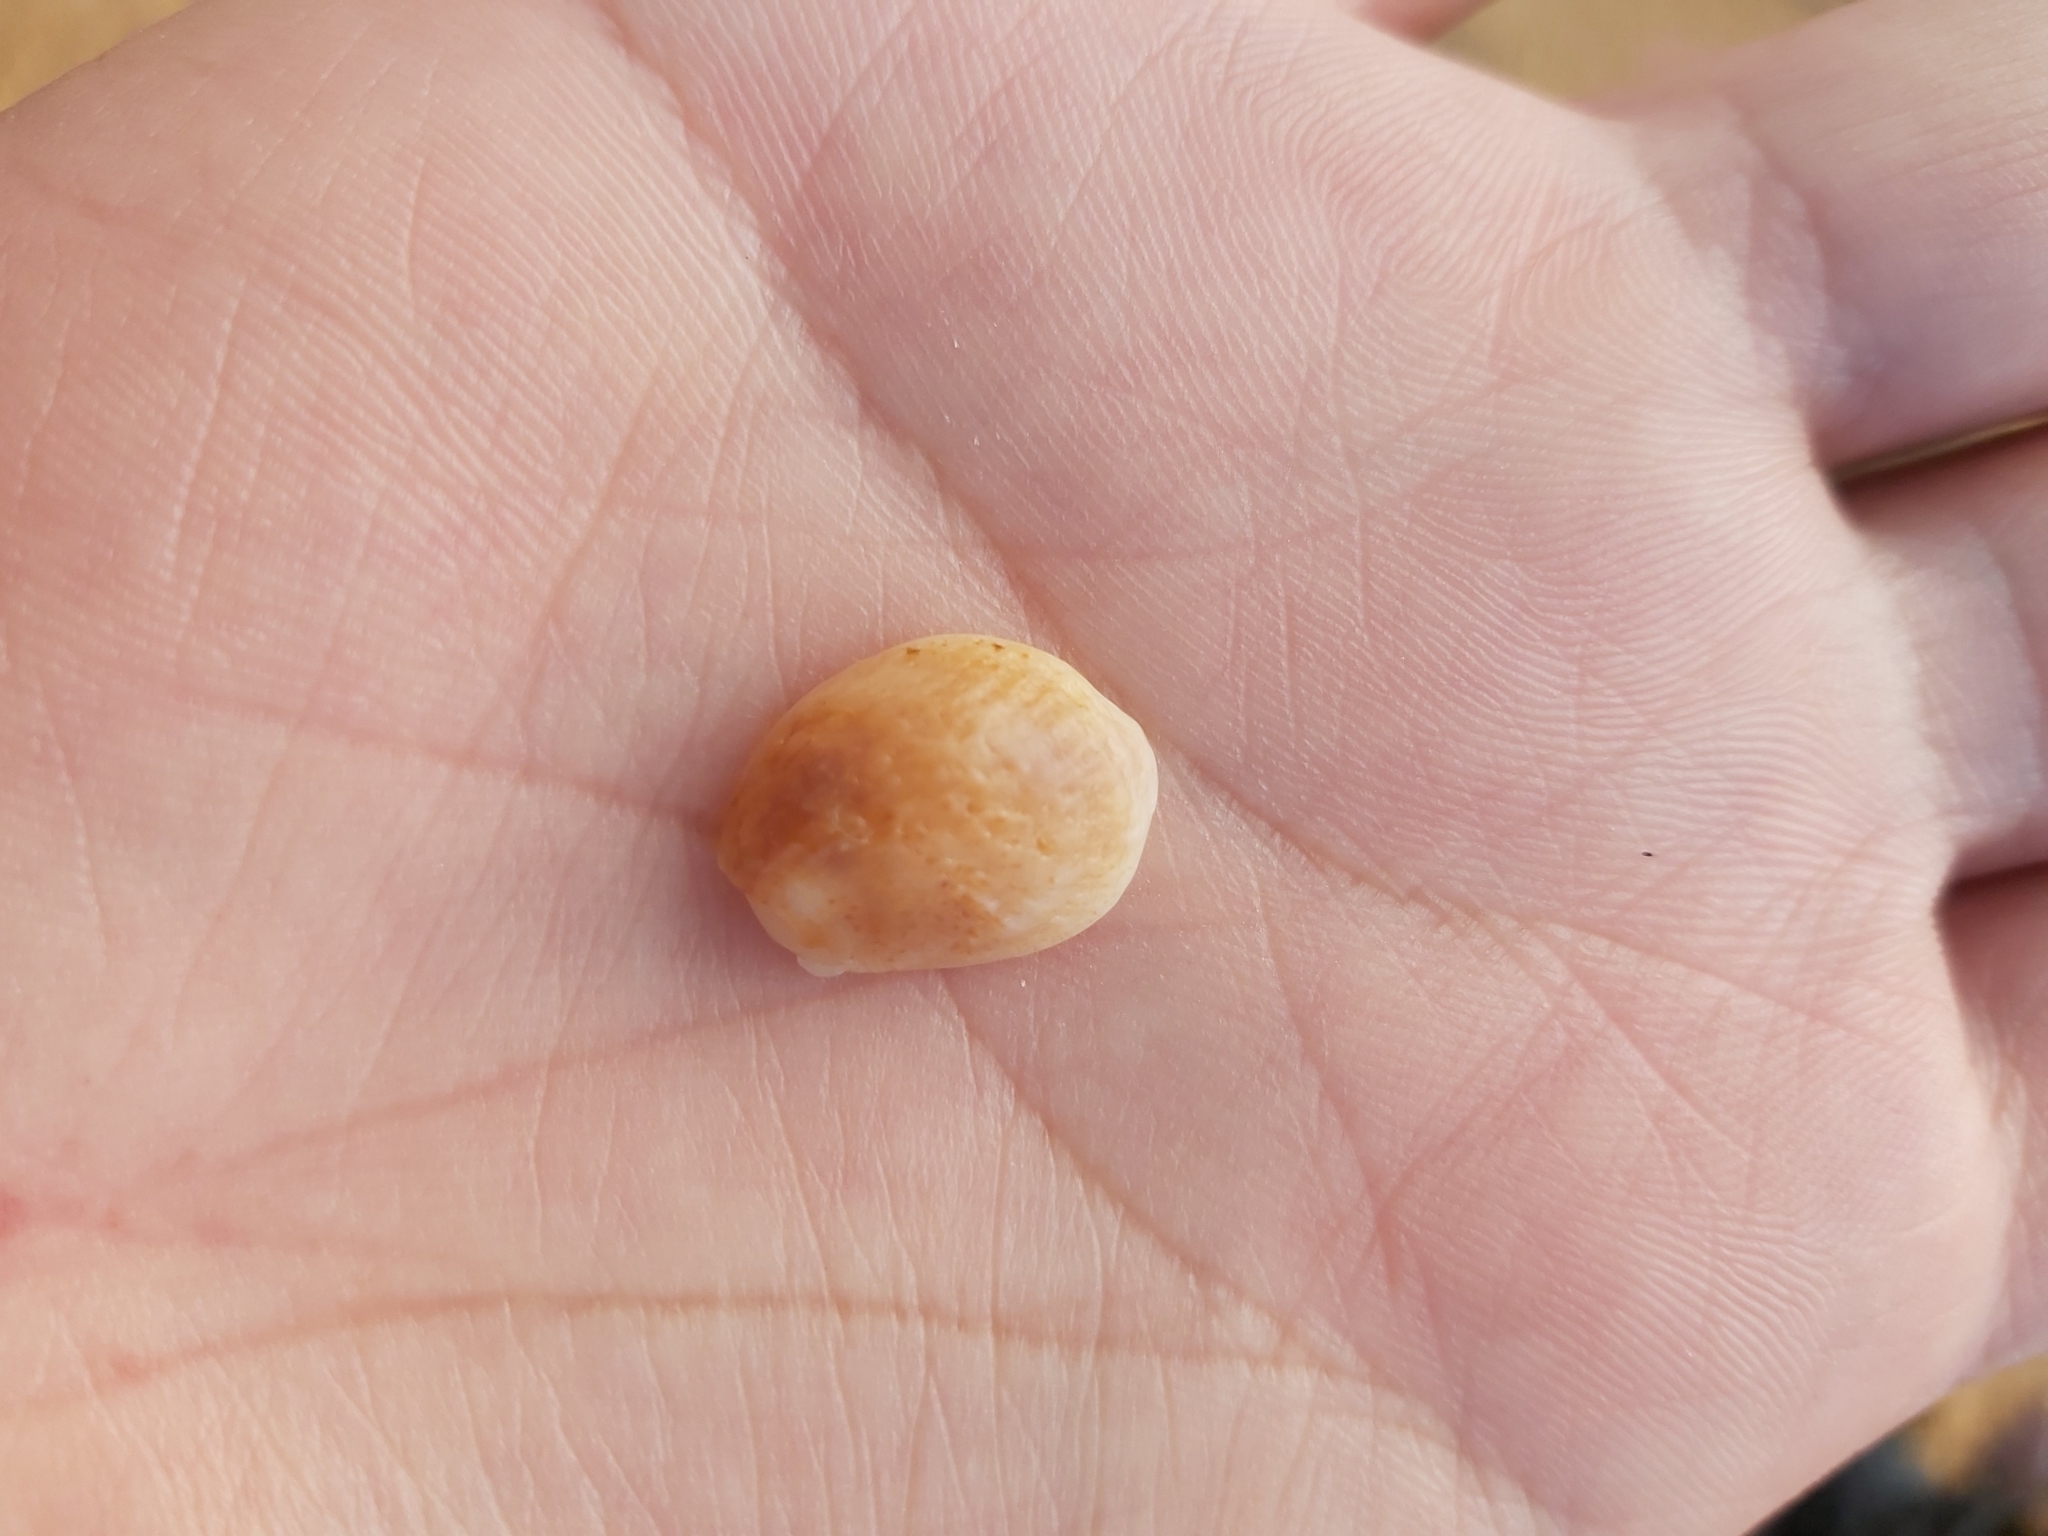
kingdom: Animalia
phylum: Mollusca
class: Gastropoda
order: Littorinimorpha
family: Calyptraeidae
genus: Bostrycapulus
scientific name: Bostrycapulus pritzkeri
